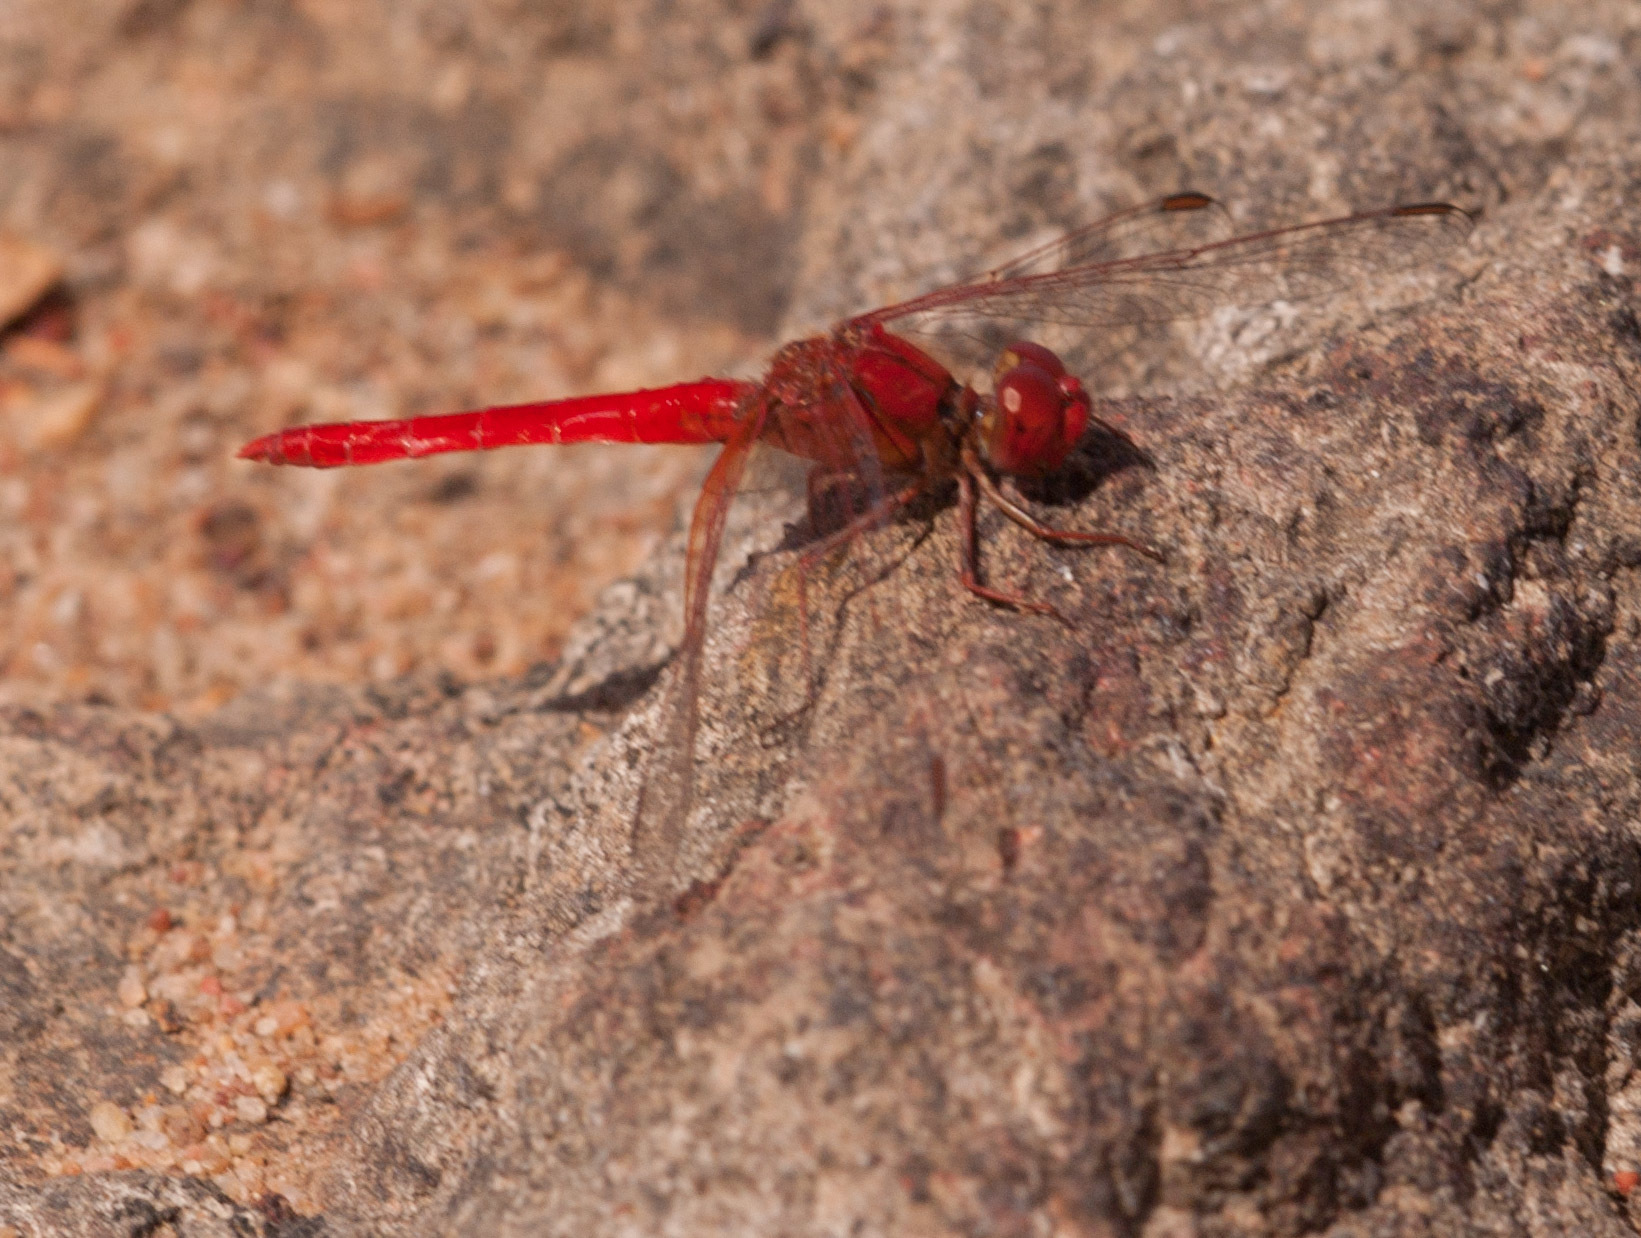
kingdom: Animalia
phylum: Arthropoda
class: Insecta
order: Odonata
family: Libellulidae
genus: Diplacodes
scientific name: Diplacodes haematodes
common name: Scarlet percher
